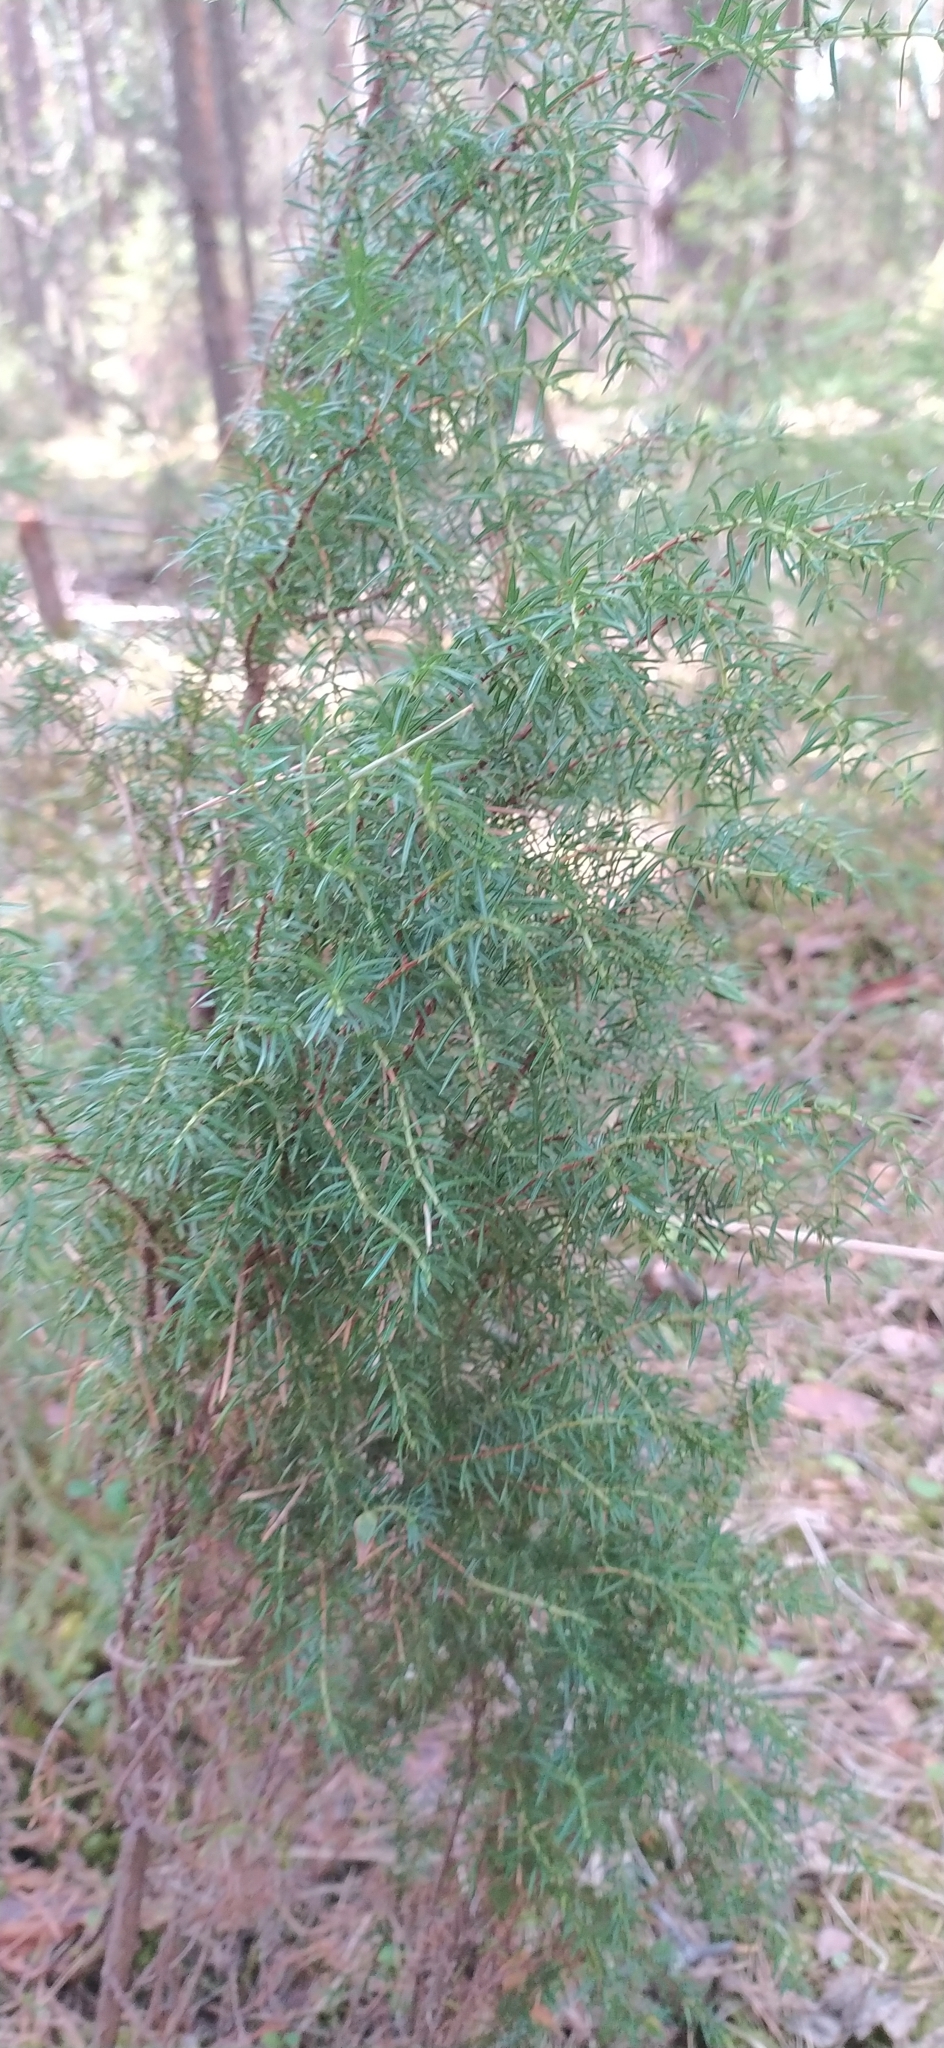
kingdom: Plantae
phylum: Tracheophyta
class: Pinopsida
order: Pinales
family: Cupressaceae
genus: Juniperus
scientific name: Juniperus communis
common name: Common juniper
